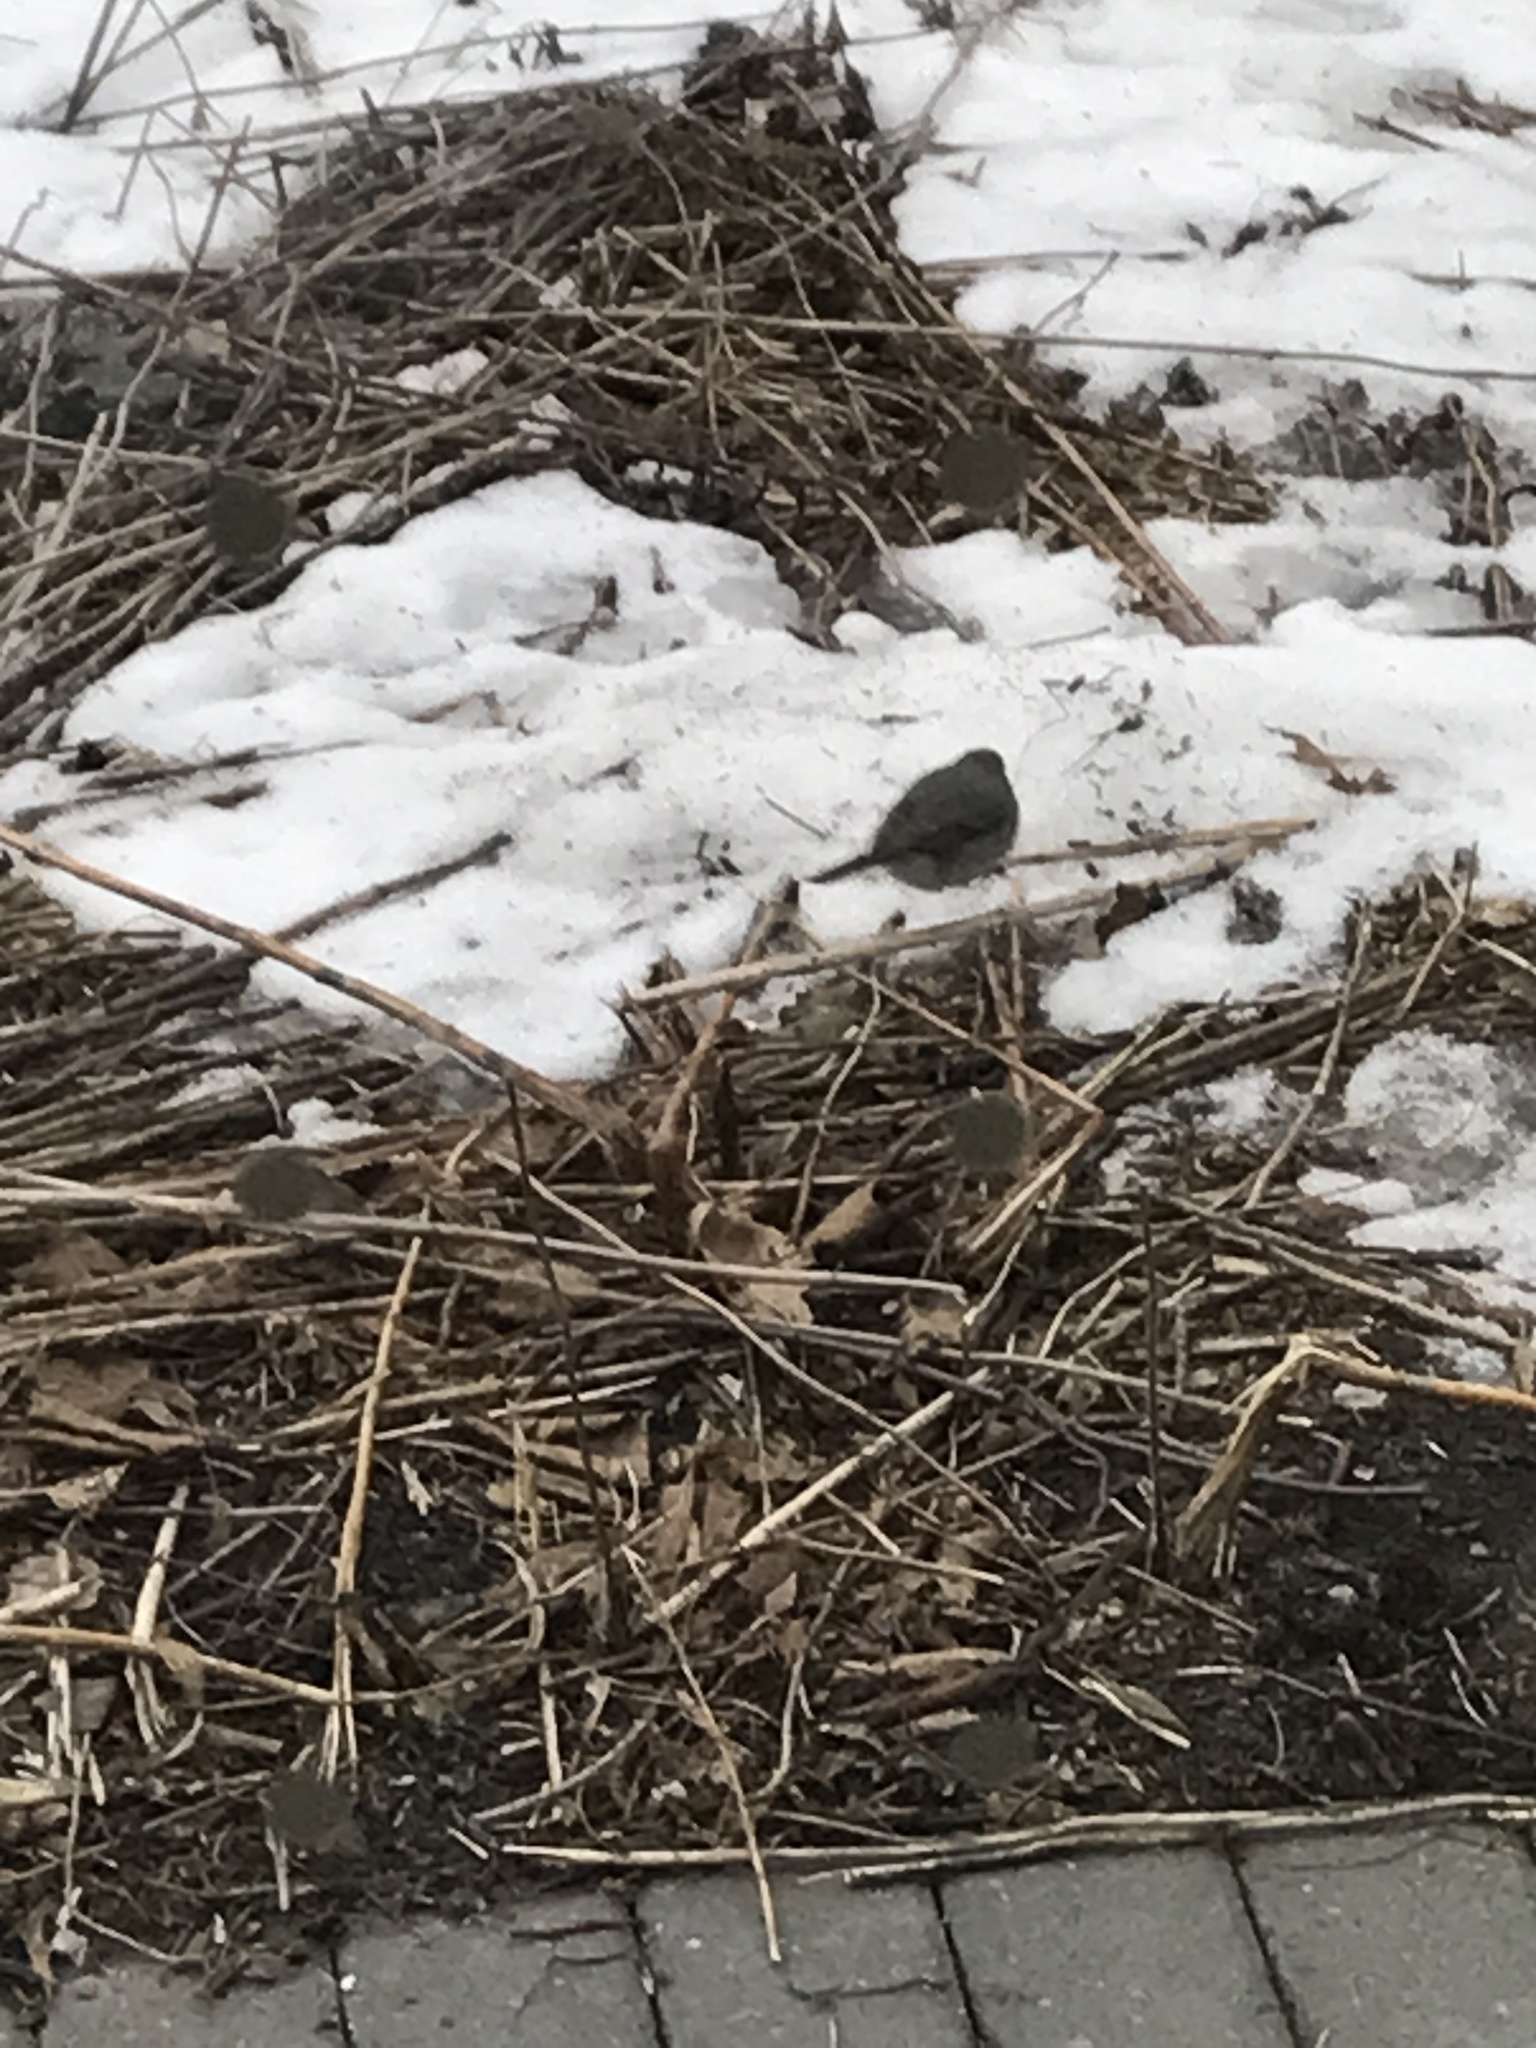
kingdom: Animalia
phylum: Chordata
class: Aves
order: Passeriformes
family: Passerellidae
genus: Junco
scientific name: Junco hyemalis
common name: Dark-eyed junco
